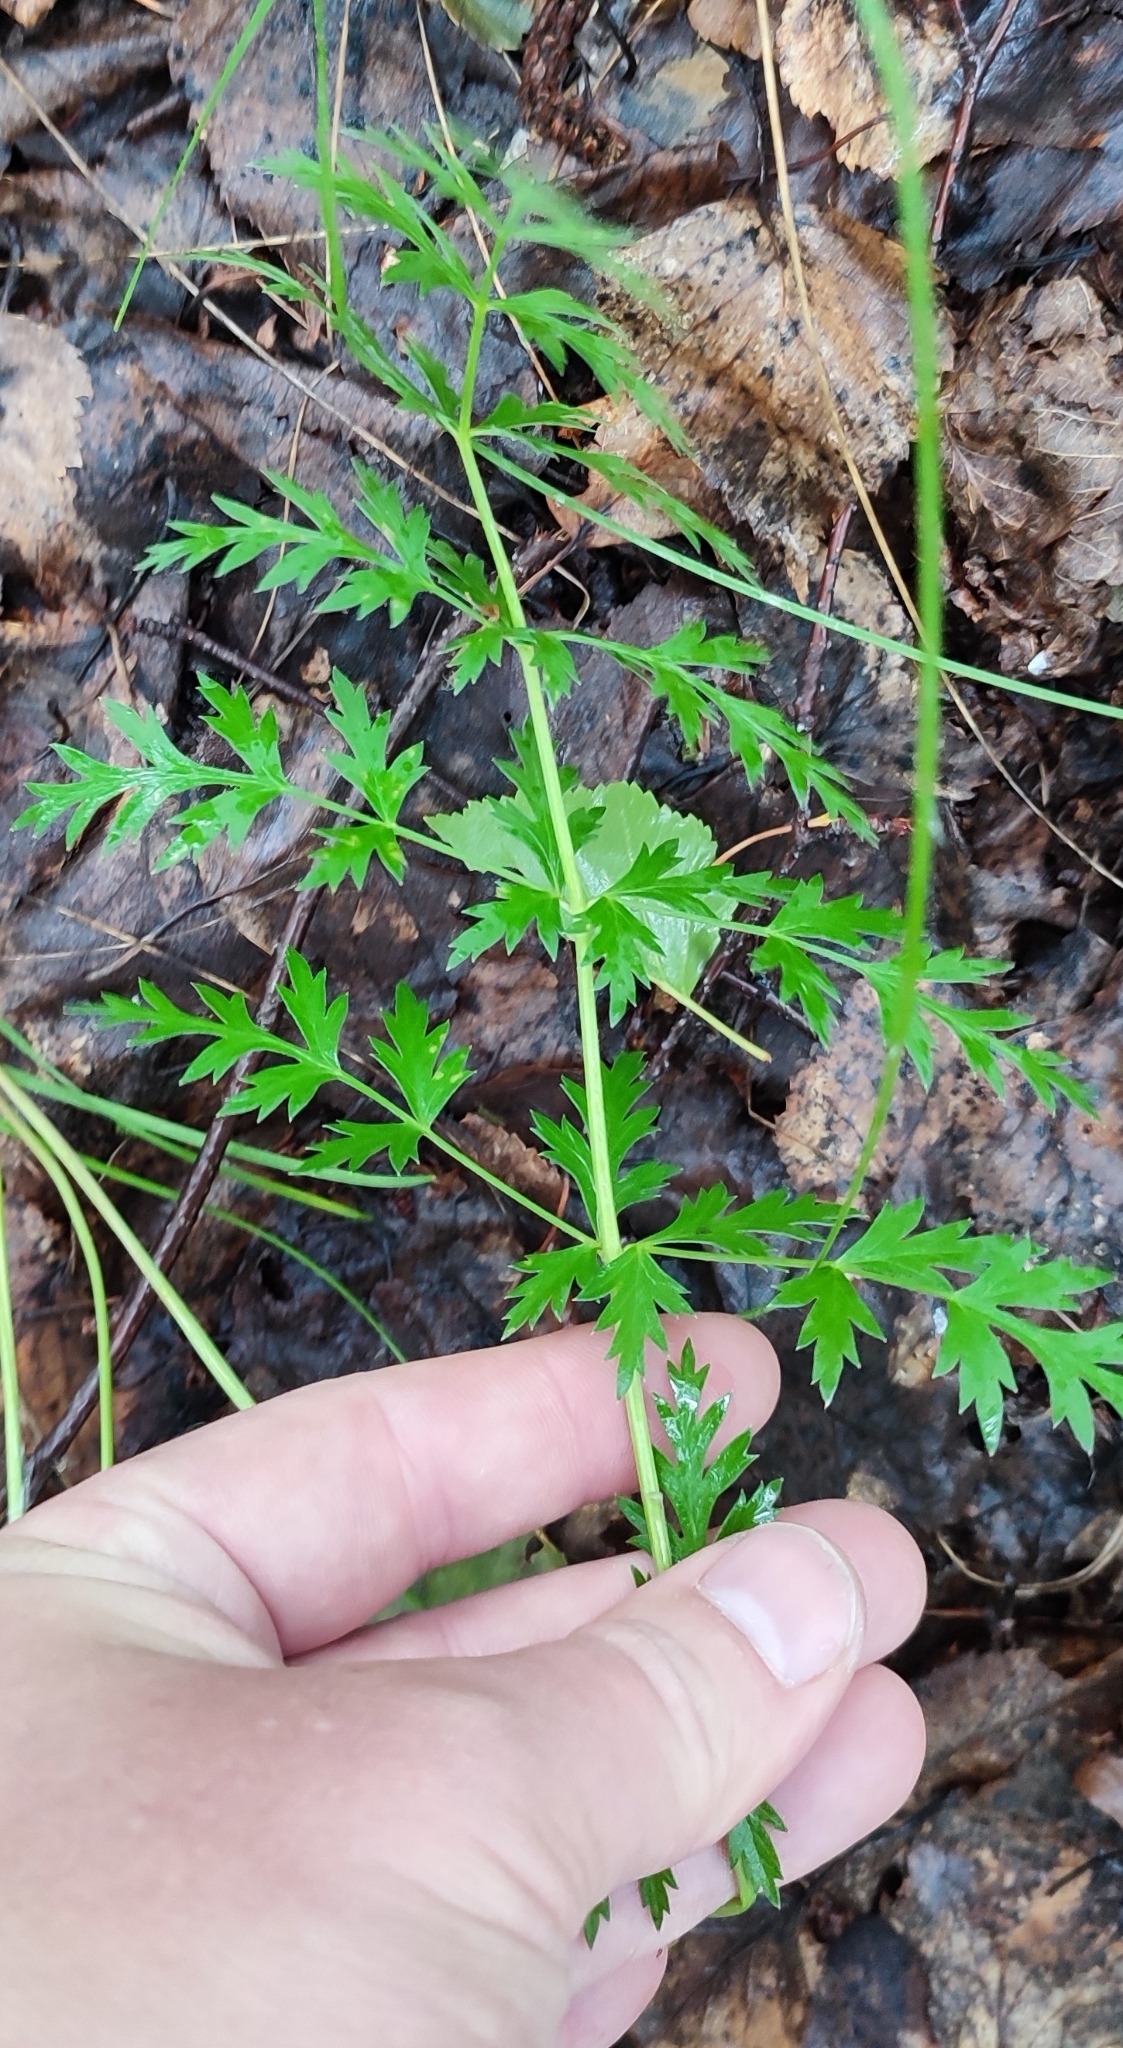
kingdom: Plantae
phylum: Tracheophyta
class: Magnoliopsida
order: Apiales
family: Apiaceae
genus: Seseli
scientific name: Seseli libanotis
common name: Mooncarrot
